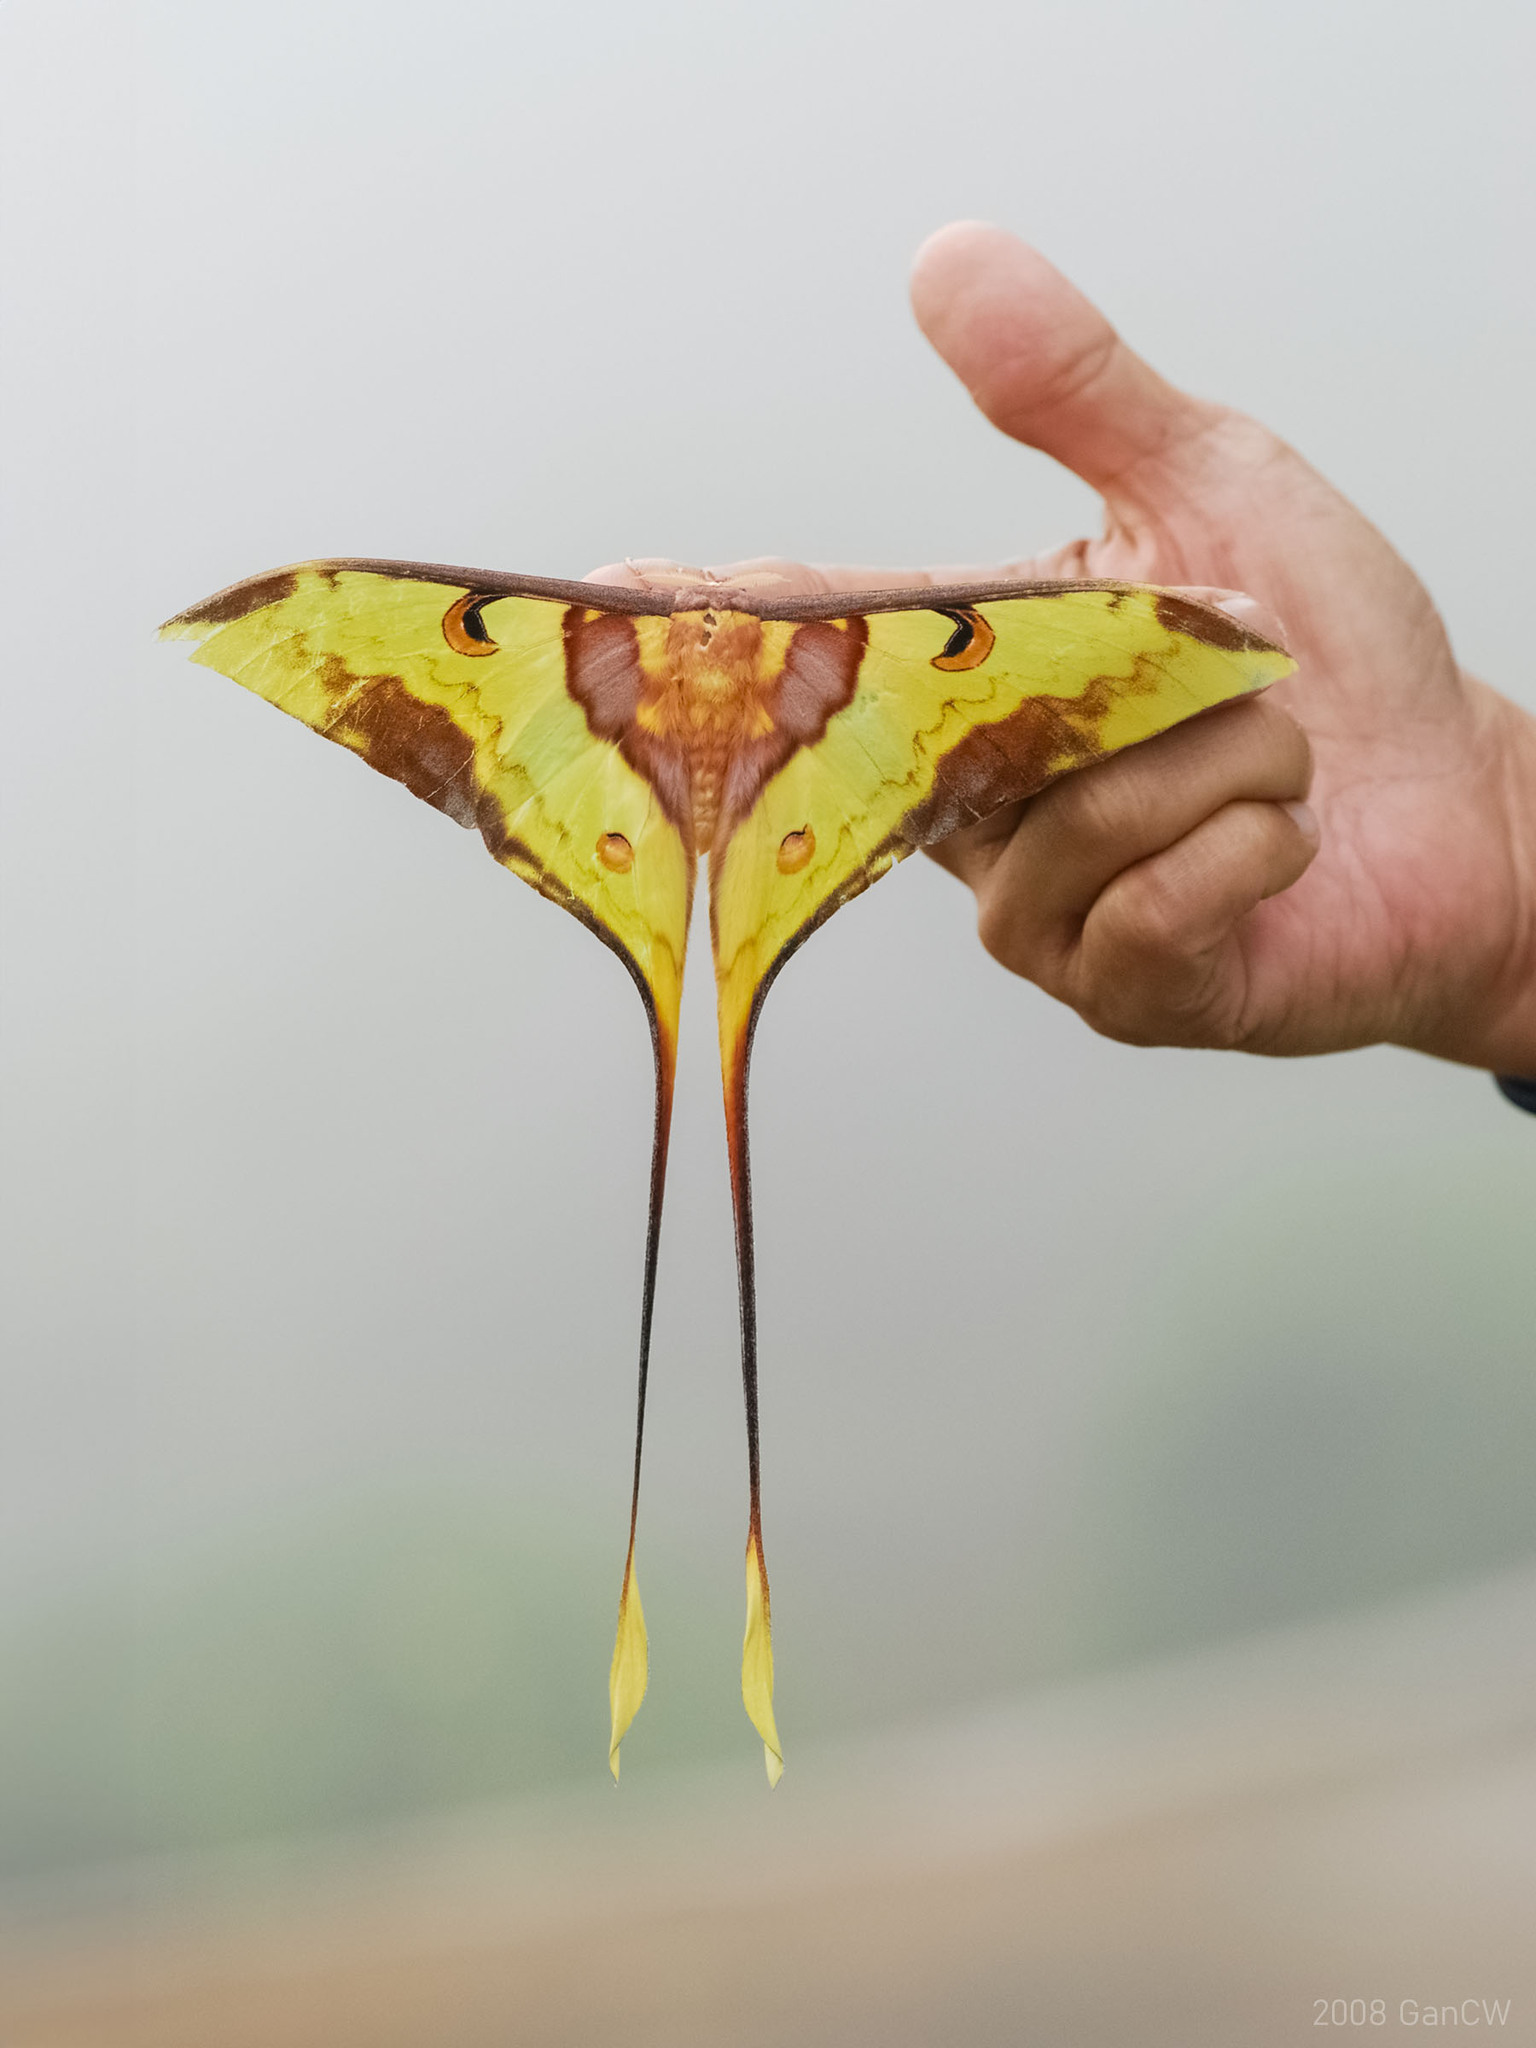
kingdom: Animalia
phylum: Arthropoda
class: Insecta
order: Lepidoptera
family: Saturniidae
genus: Actias
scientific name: Actias maenas
